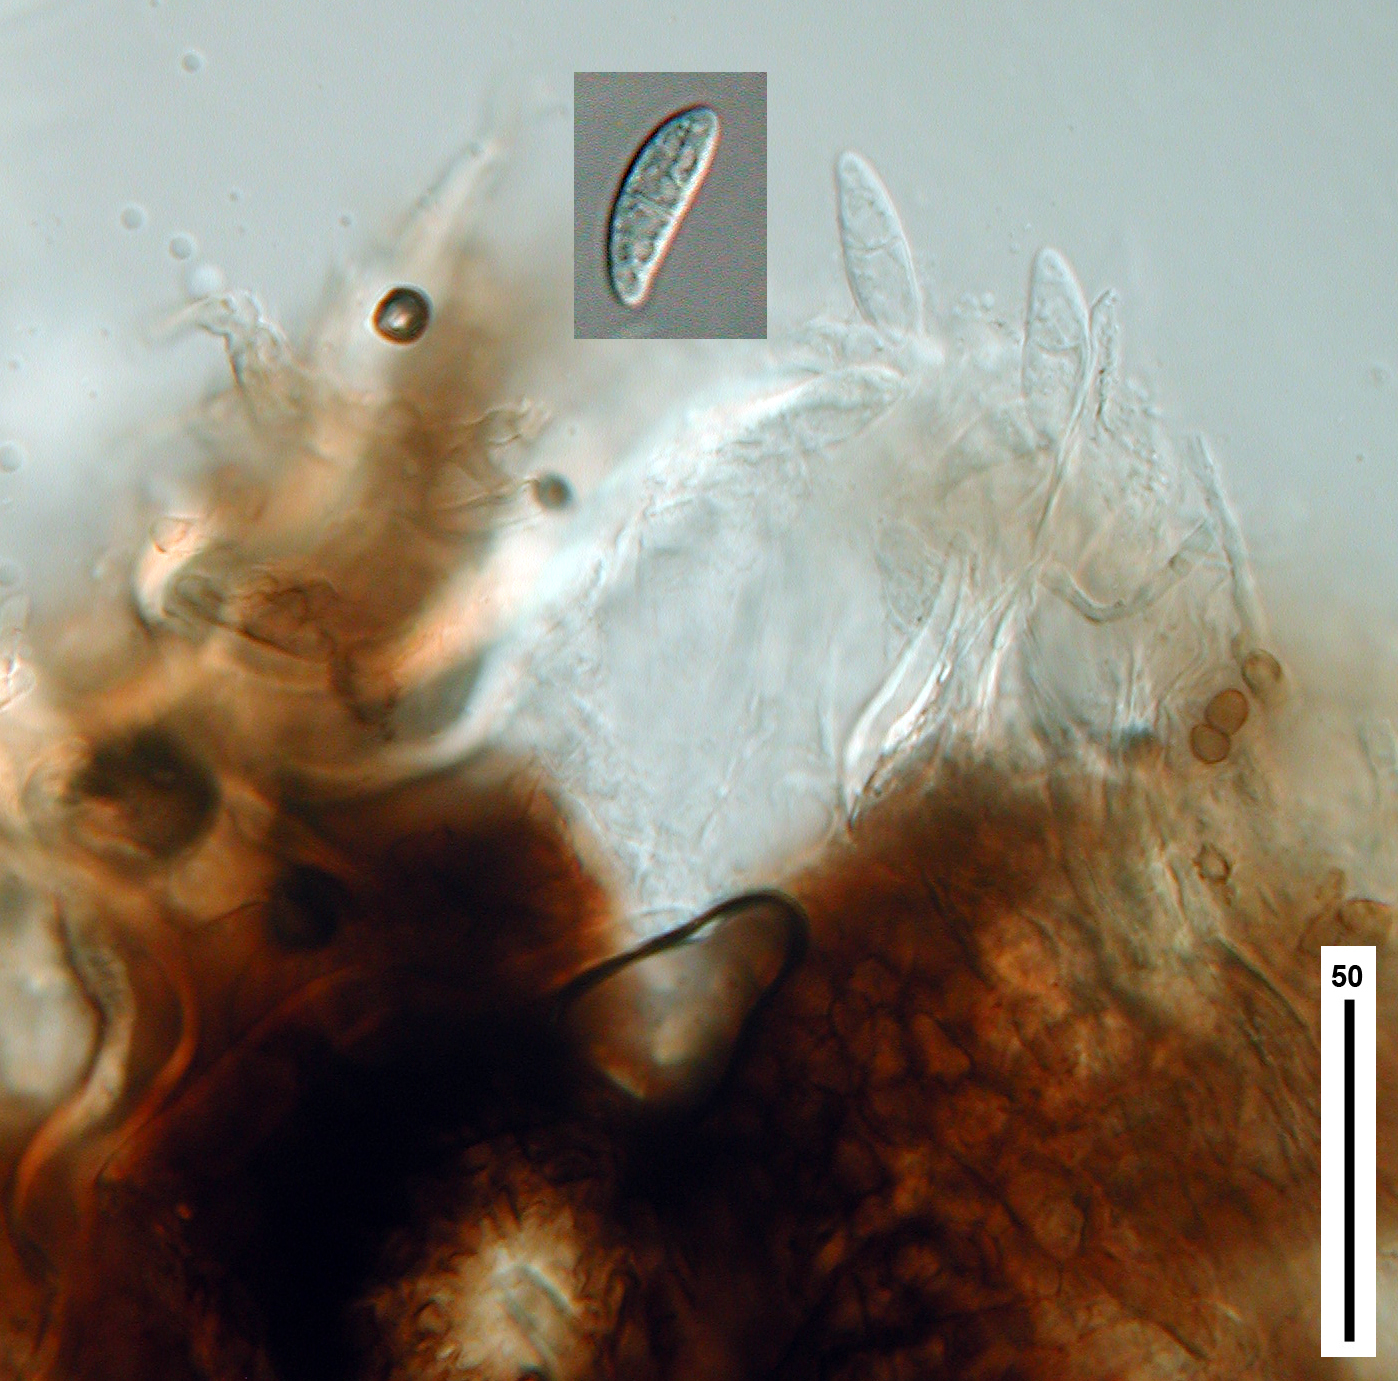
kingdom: Fungi
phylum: Ascomycota
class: Dothideomycetes
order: Venturiales
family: Venturiaceae
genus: Rosenscheldiella
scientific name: Rosenscheldiella styracis
